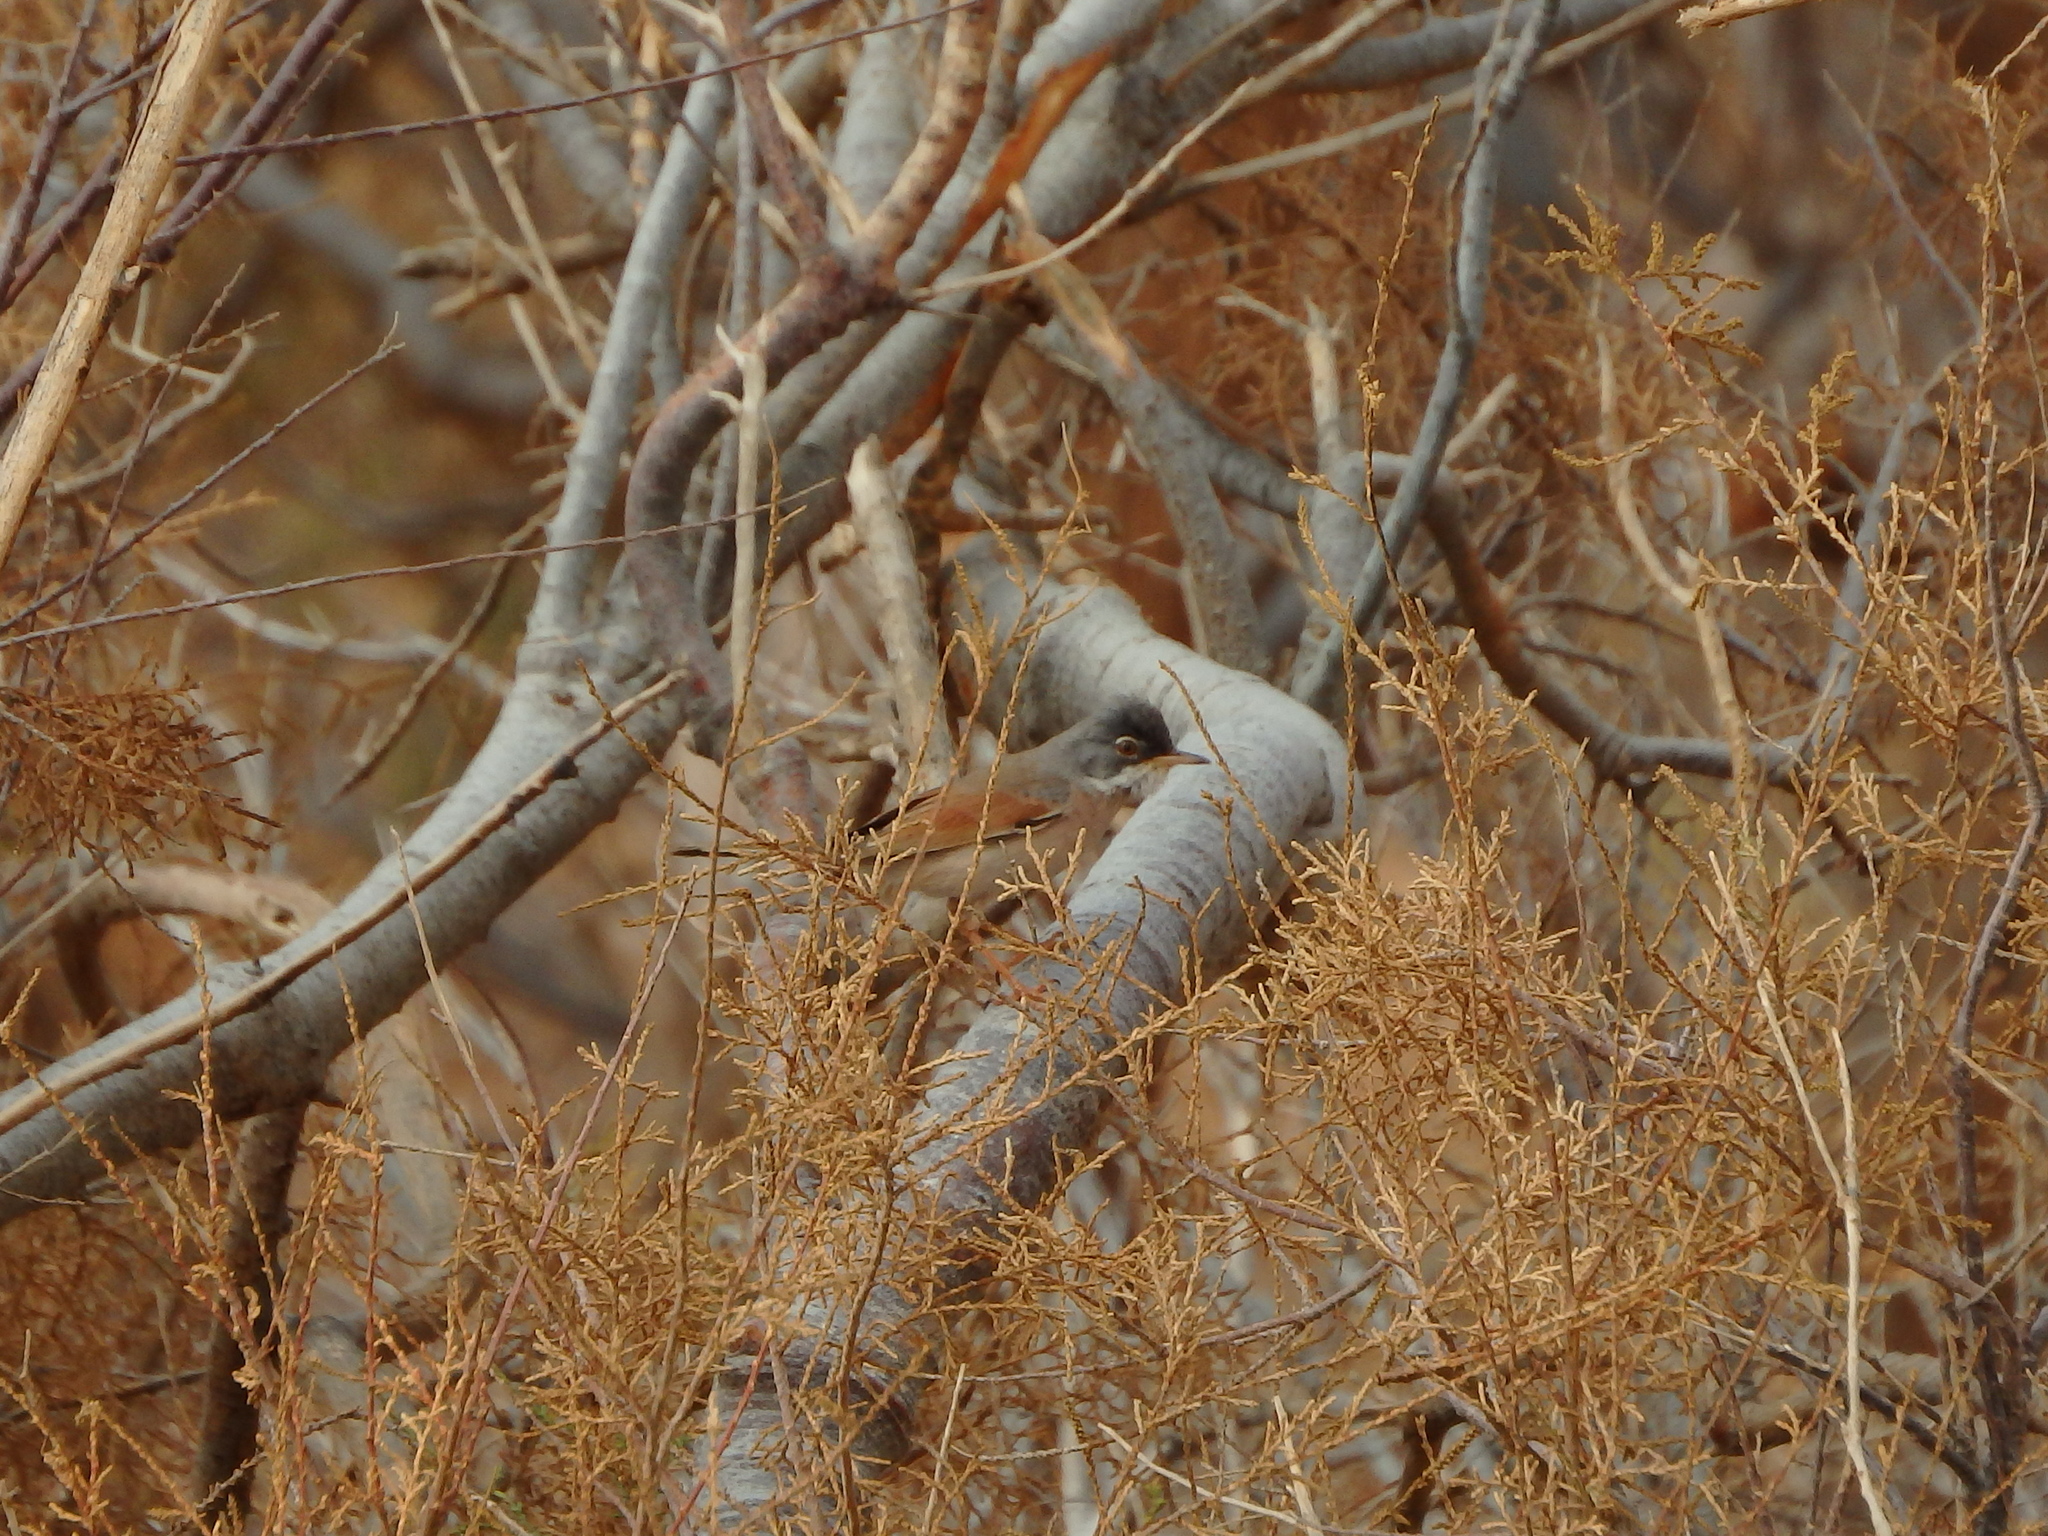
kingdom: Animalia
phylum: Chordata
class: Aves
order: Passeriformes
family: Sylviidae
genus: Sylvia
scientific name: Sylvia conspicillata
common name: Spectacled warbler
